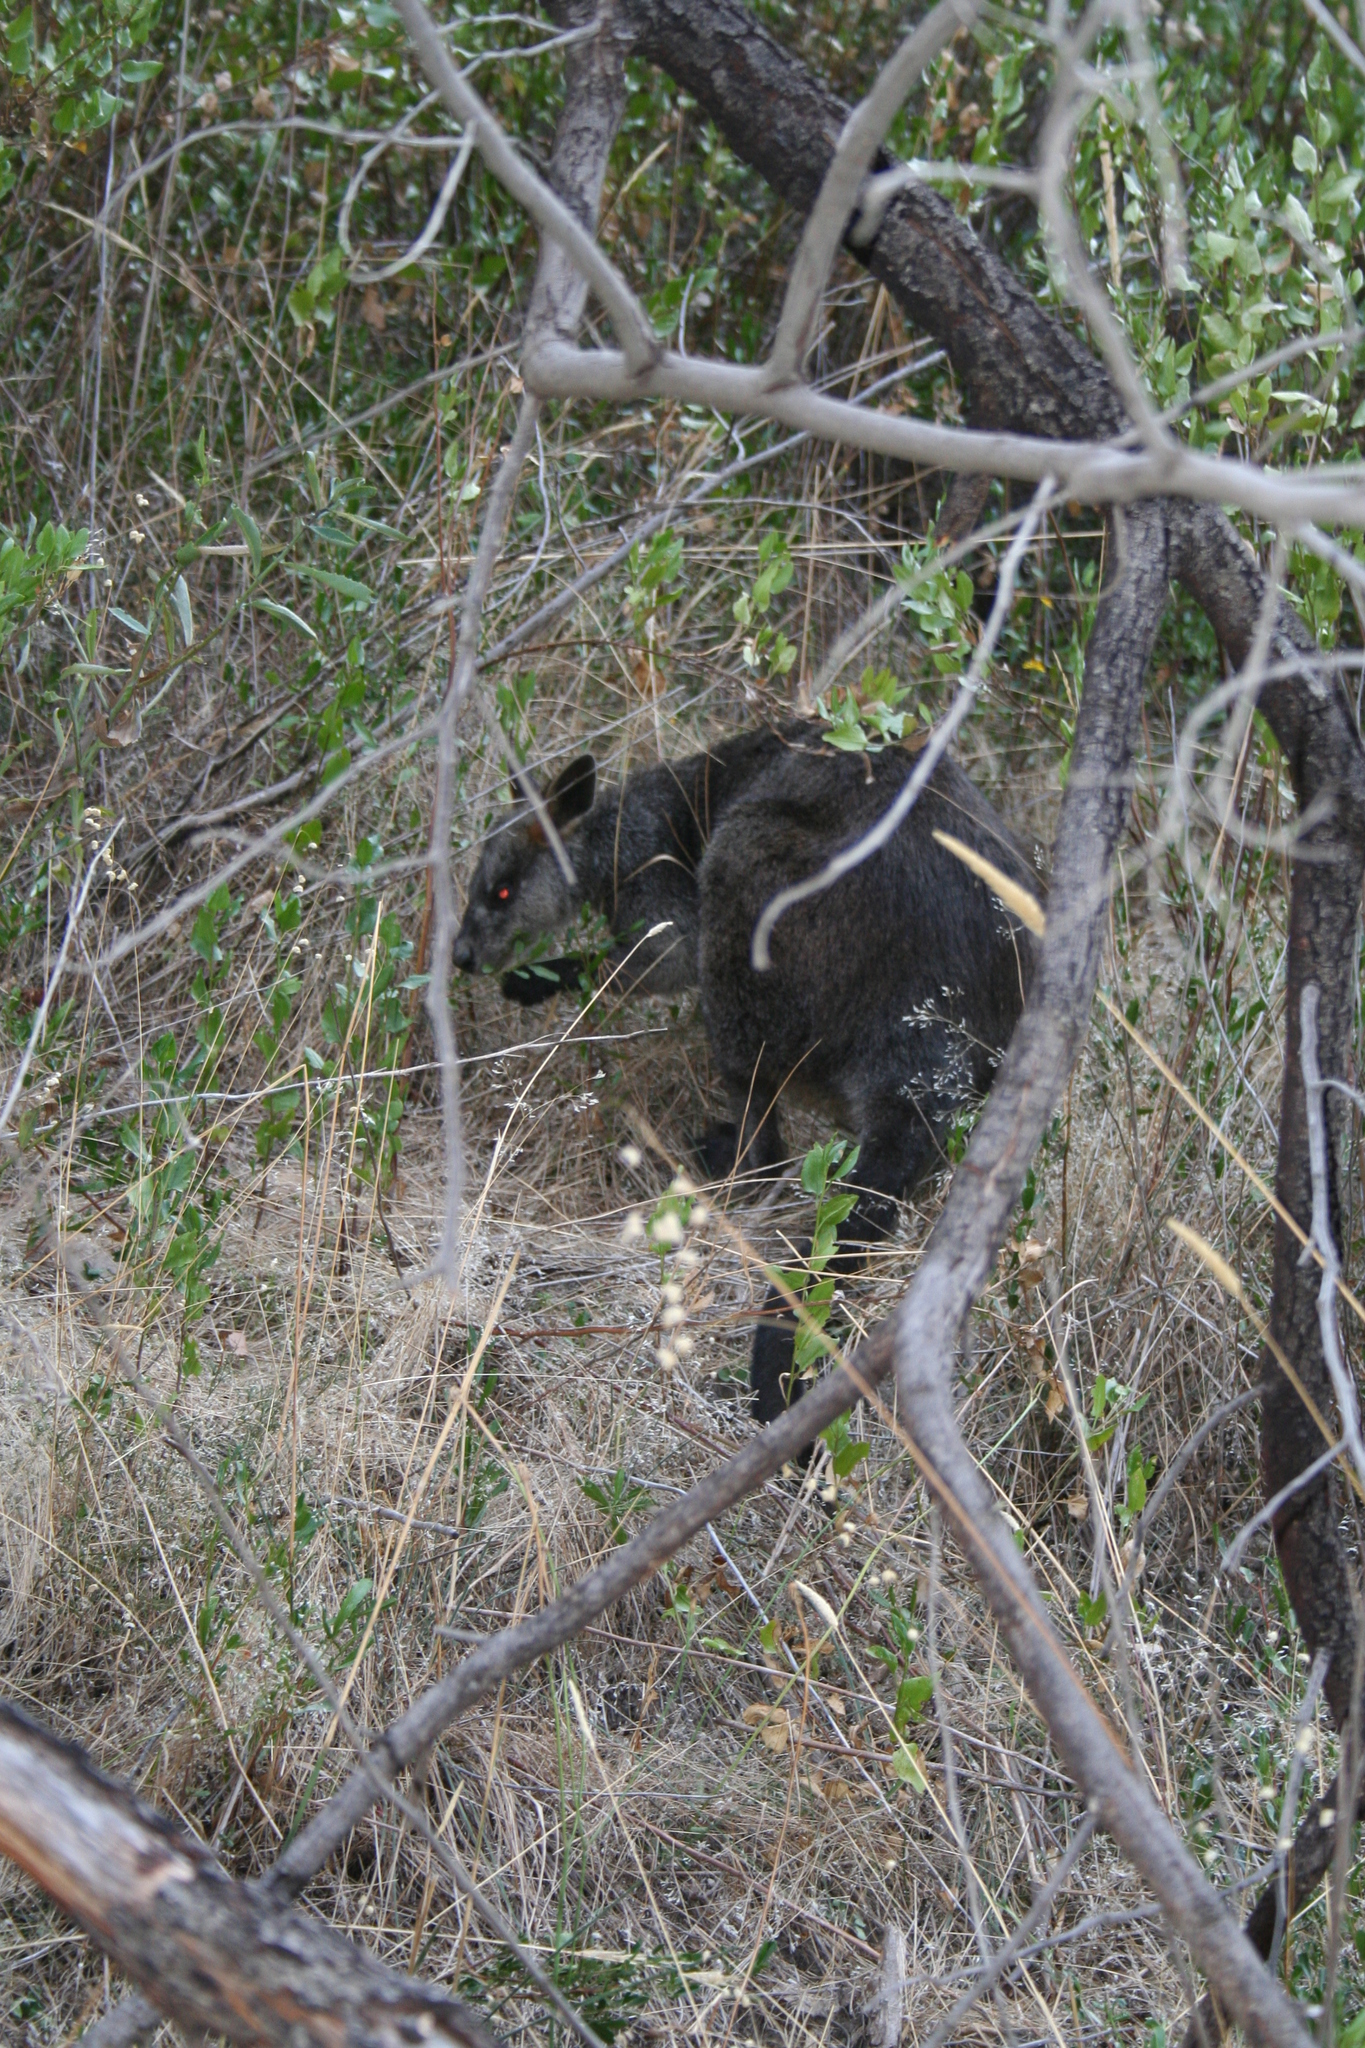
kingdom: Animalia
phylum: Chordata
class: Mammalia
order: Diprotodontia
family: Macropodidae
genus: Wallabia
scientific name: Wallabia bicolor
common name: Swamp wallaby
